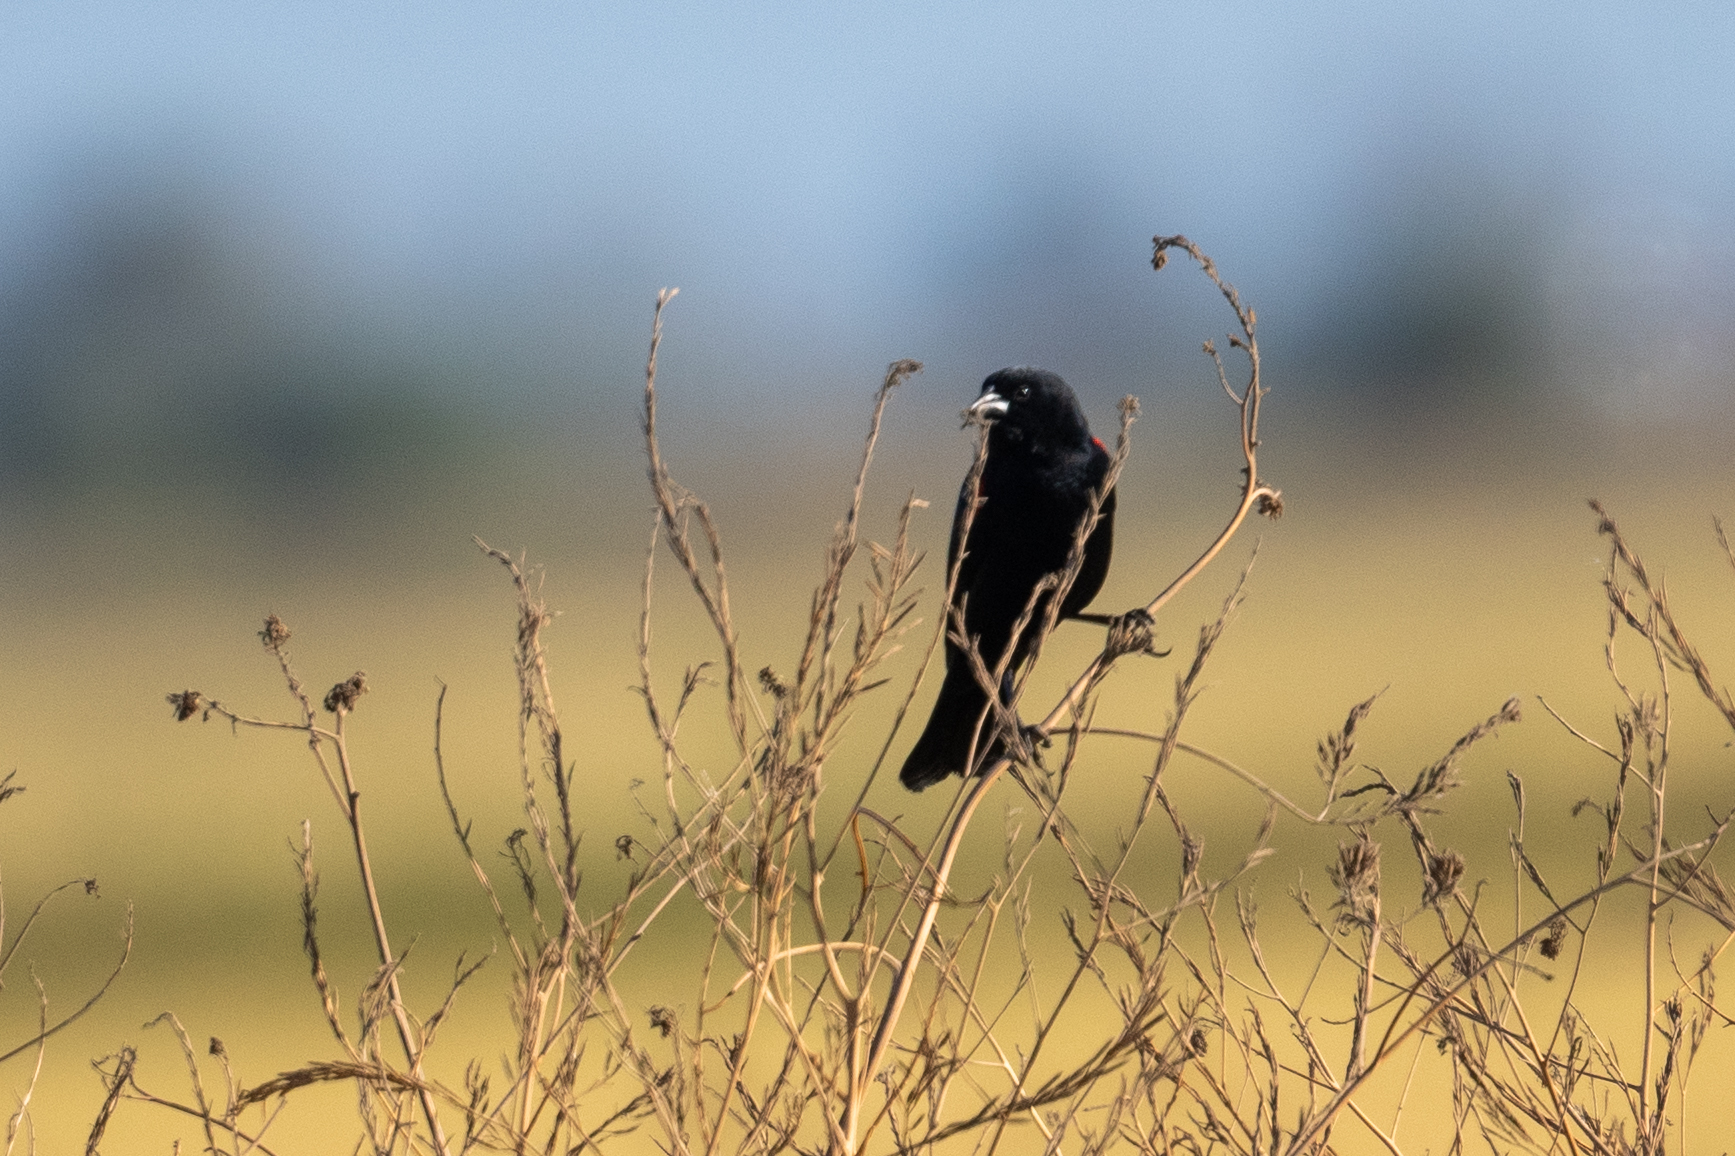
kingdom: Animalia
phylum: Chordata
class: Aves
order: Passeriformes
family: Icteridae
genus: Agelaius
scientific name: Agelaius phoeniceus
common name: Red-winged blackbird
